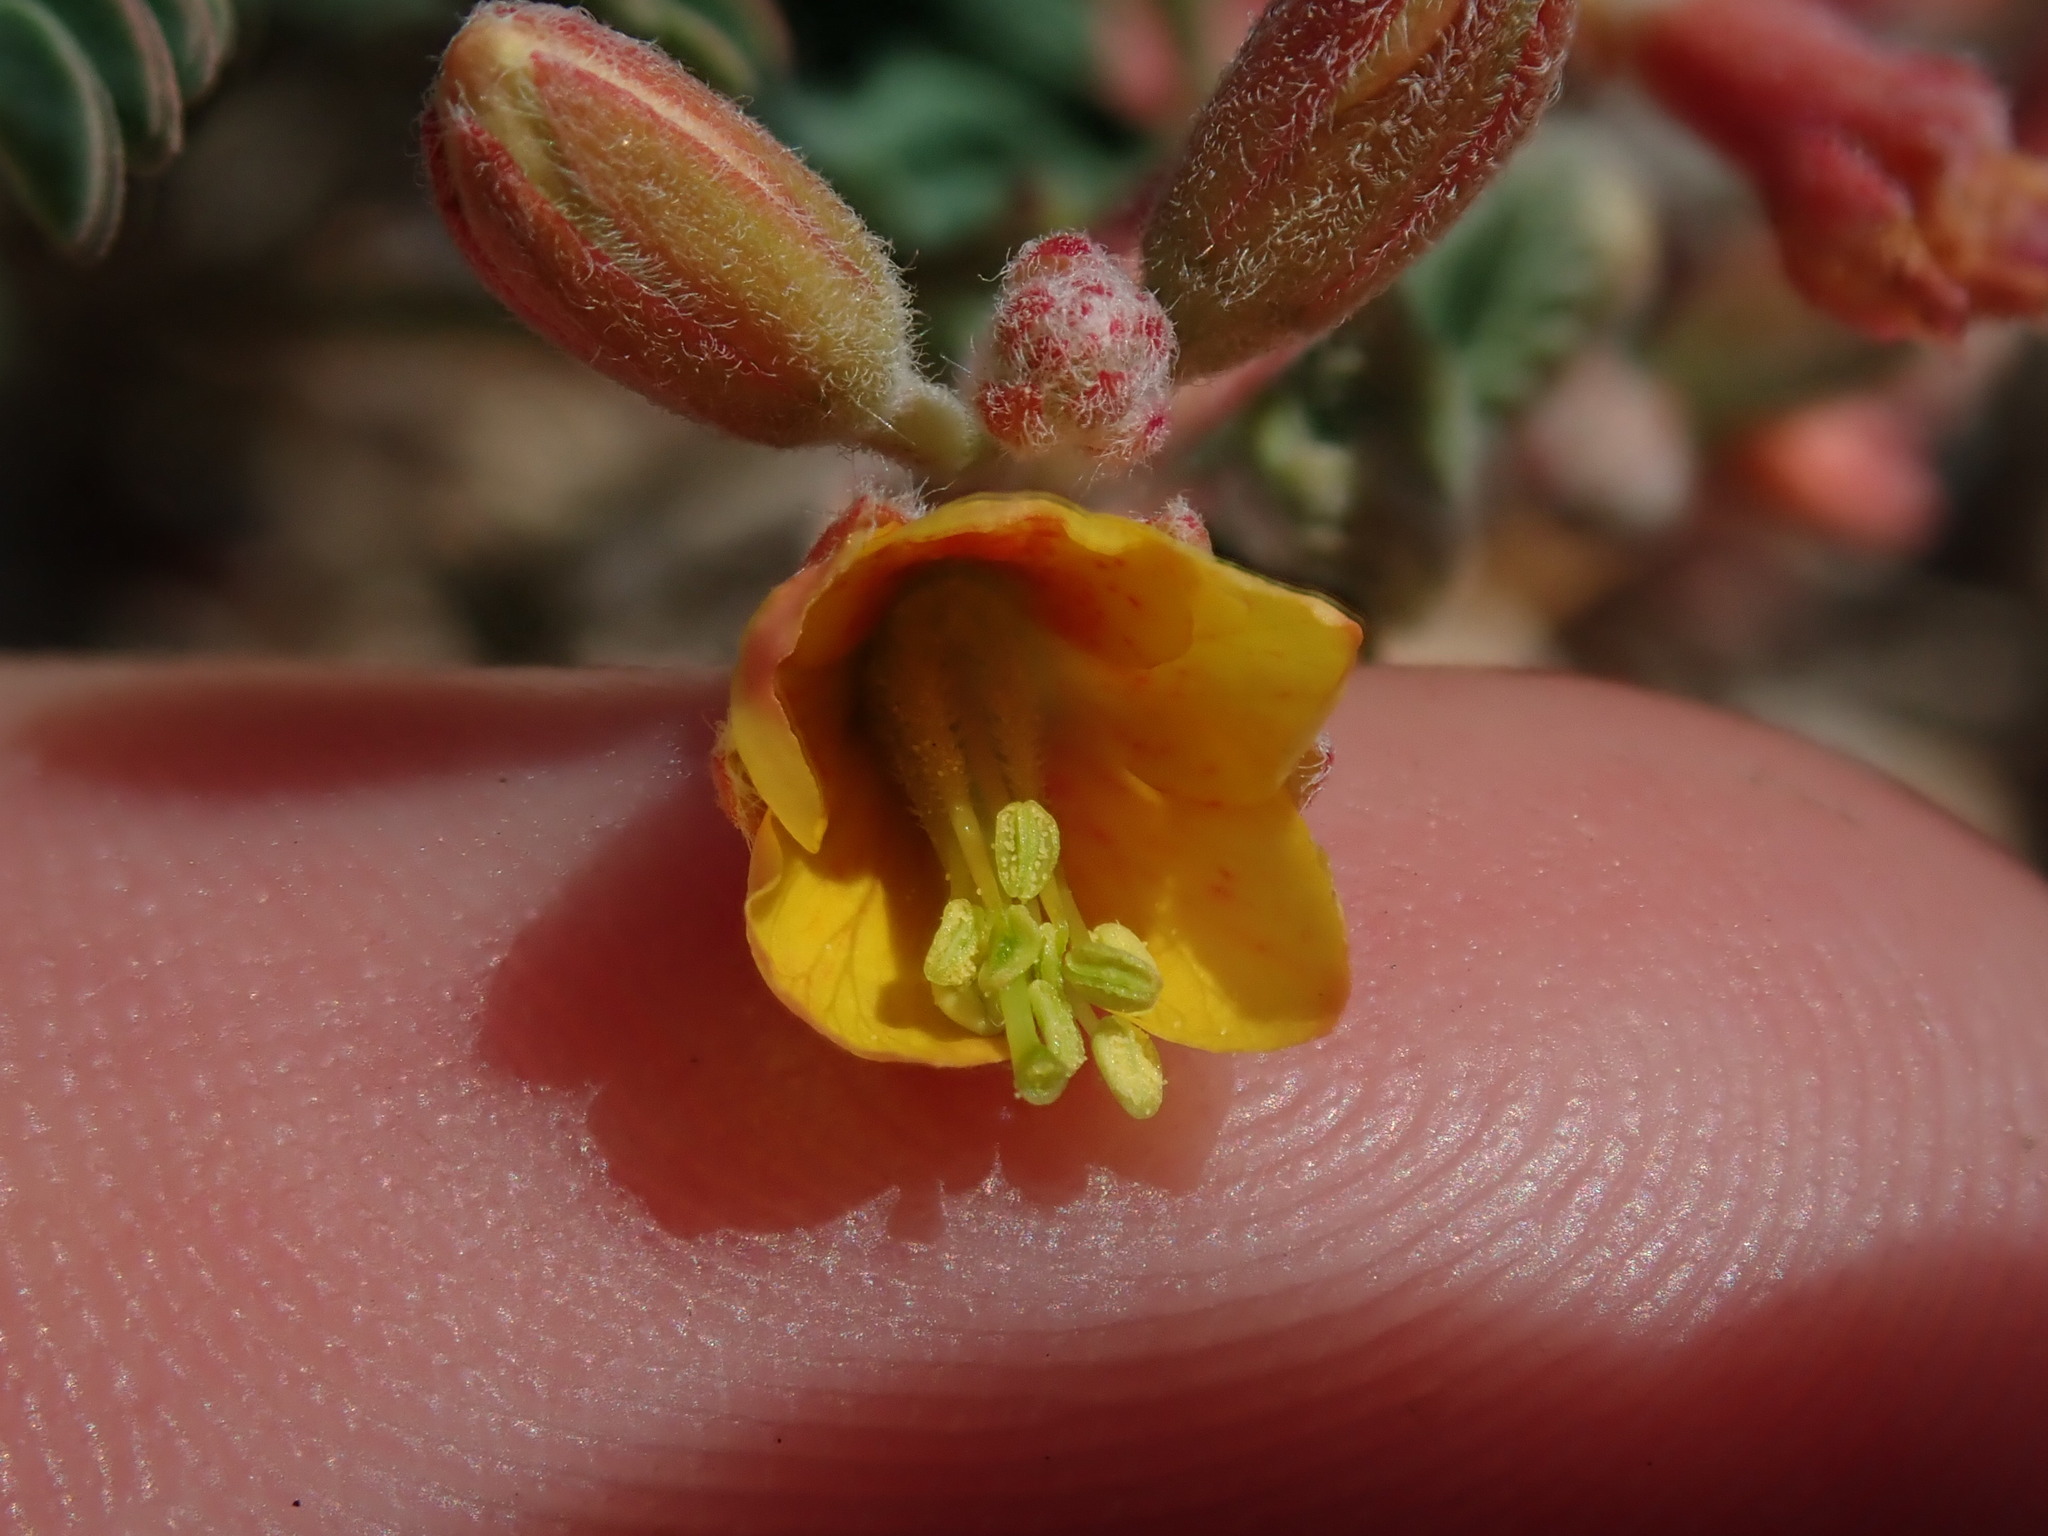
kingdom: Plantae
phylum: Tracheophyta
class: Magnoliopsida
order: Fabales
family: Fabaceae
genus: Hoffmannseggia
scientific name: Hoffmannseggia drepanocarpa
